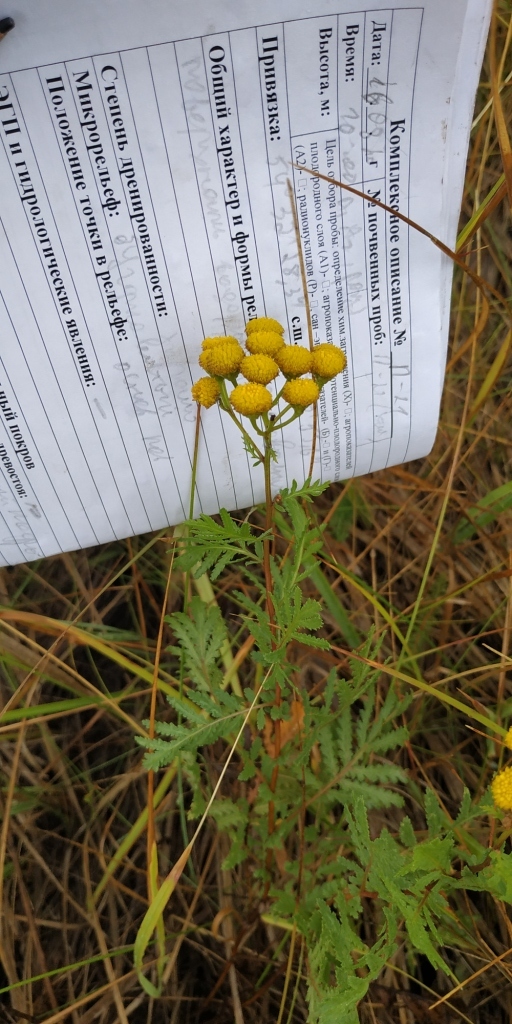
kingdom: Plantae
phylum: Tracheophyta
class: Magnoliopsida
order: Asterales
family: Asteraceae
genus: Tanacetum
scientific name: Tanacetum vulgare
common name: Common tansy
